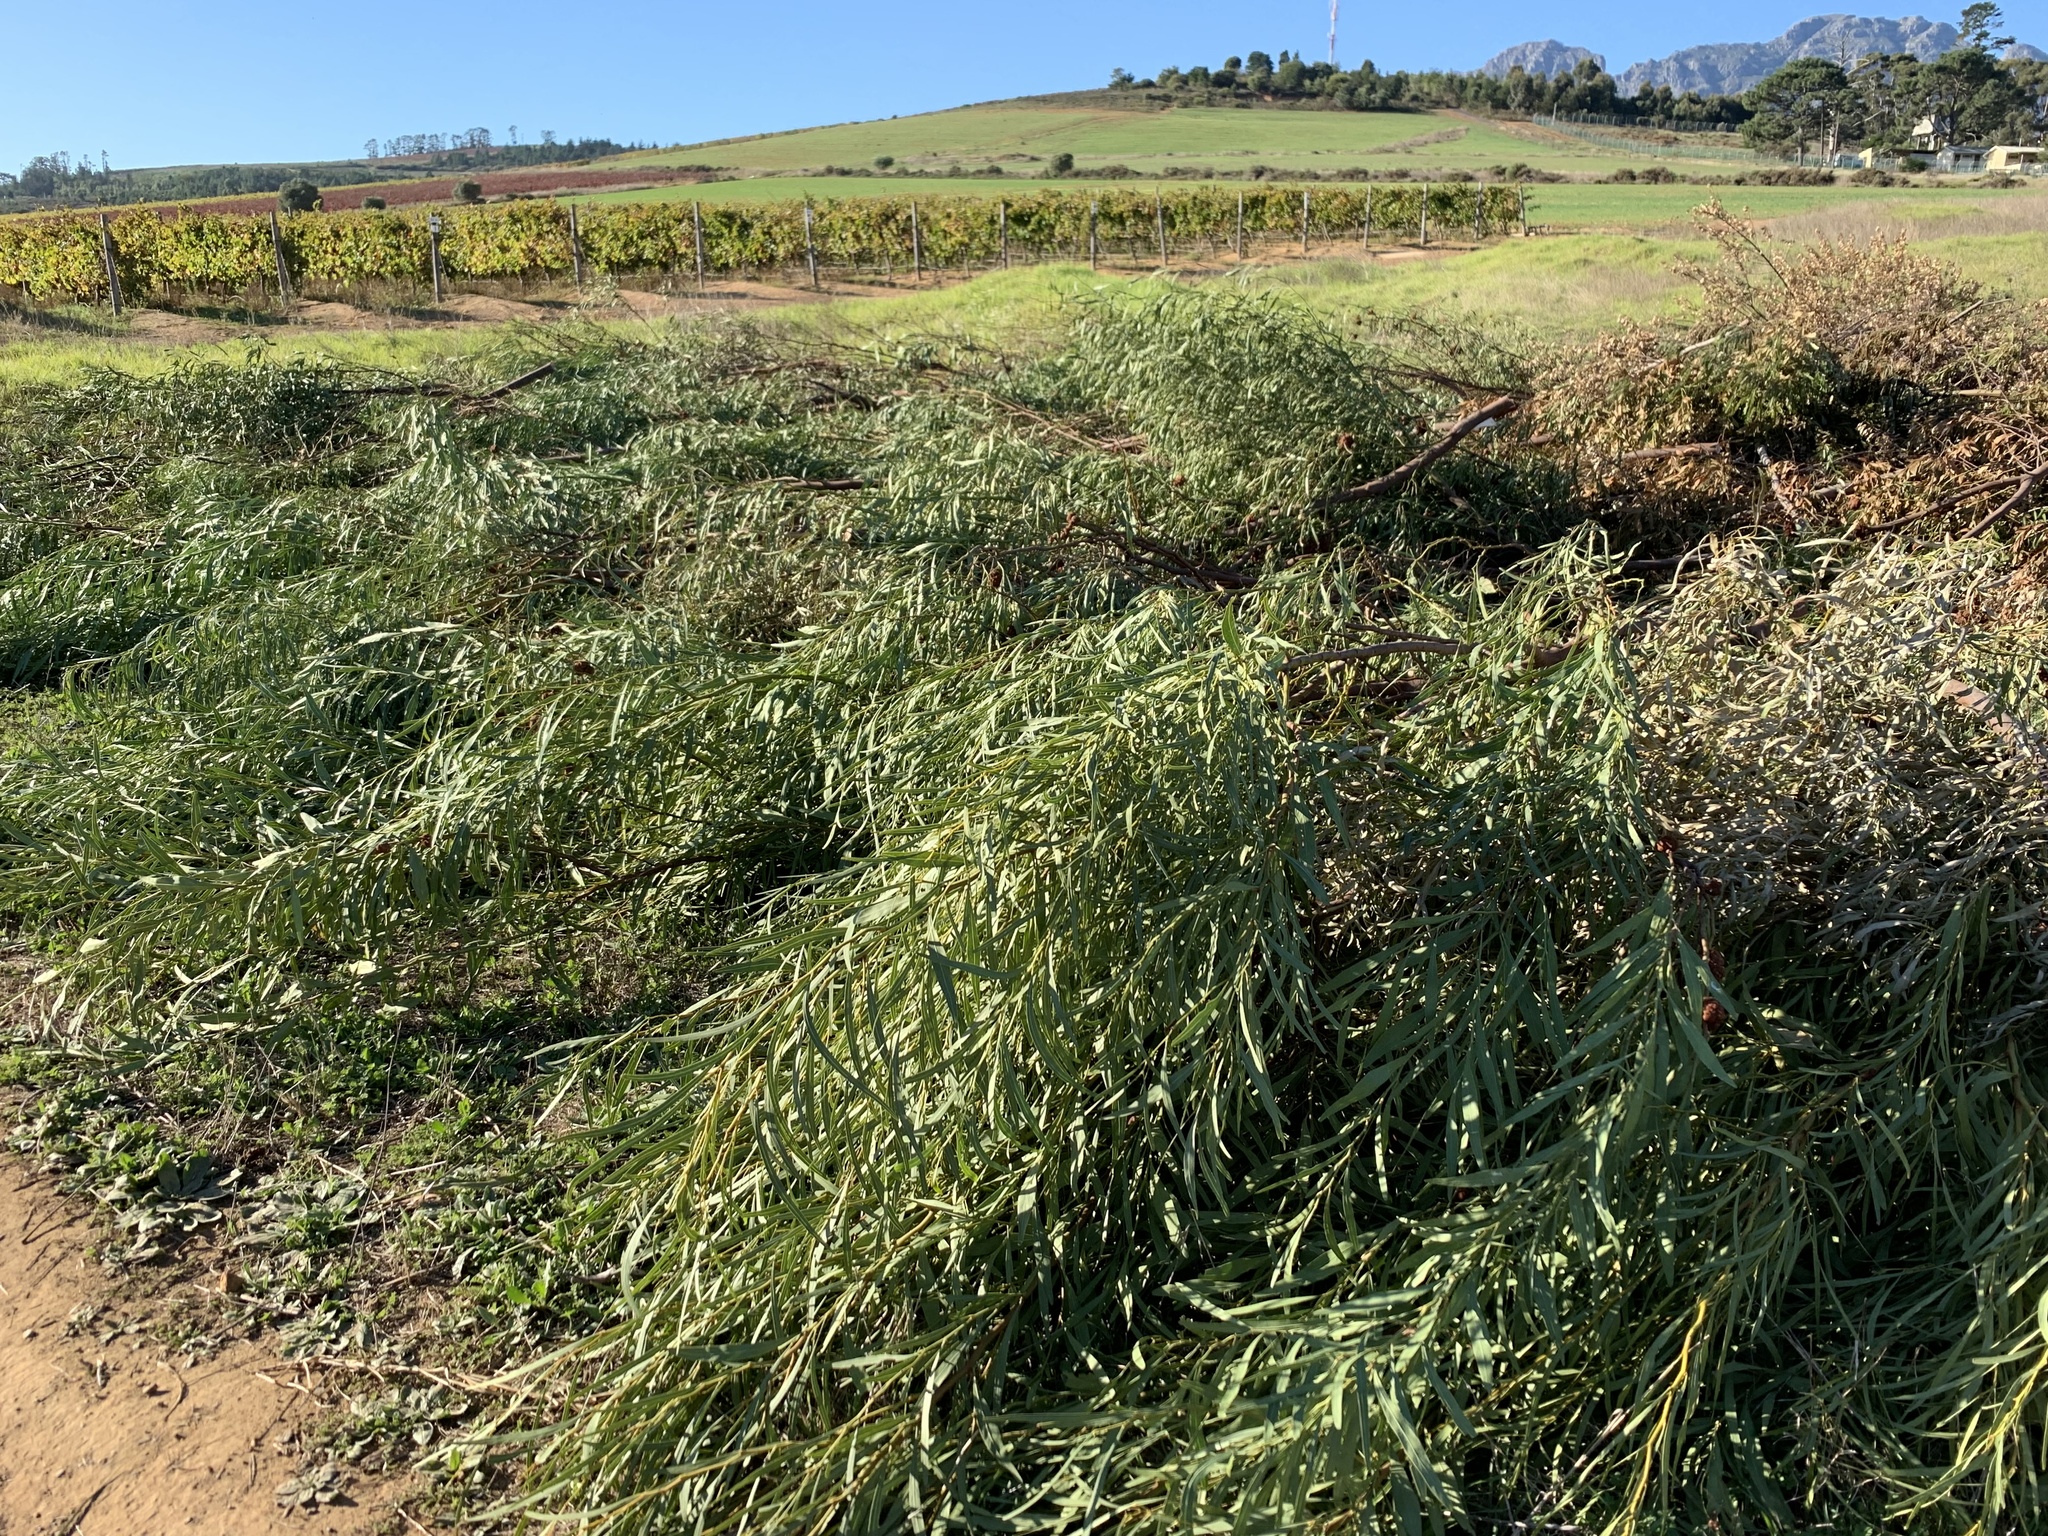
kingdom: Plantae
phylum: Tracheophyta
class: Magnoliopsida
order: Fabales
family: Fabaceae
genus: Acacia
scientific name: Acacia saligna
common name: Orange wattle
